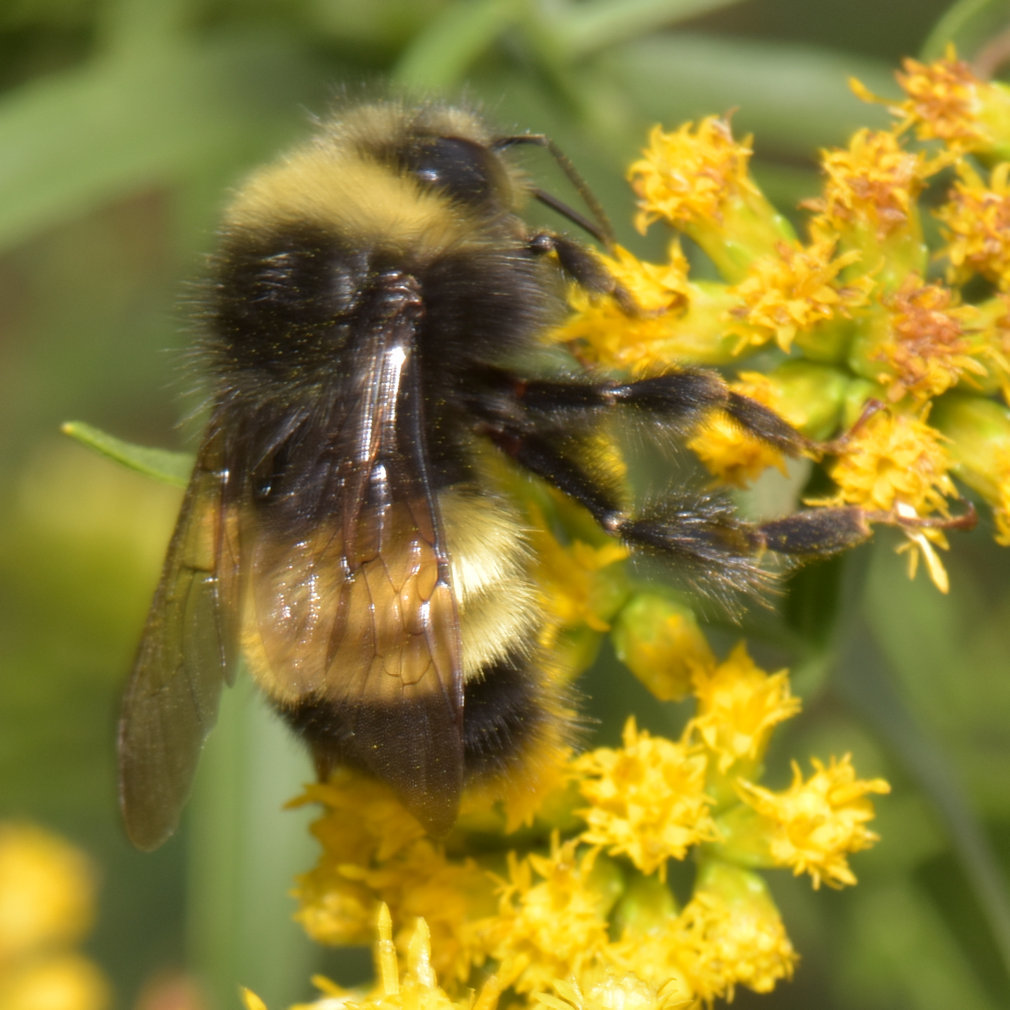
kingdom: Animalia
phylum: Arthropoda
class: Insecta
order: Hymenoptera
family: Apidae
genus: Bombus
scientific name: Bombus terricola
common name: Yellow-banded bumble bee
